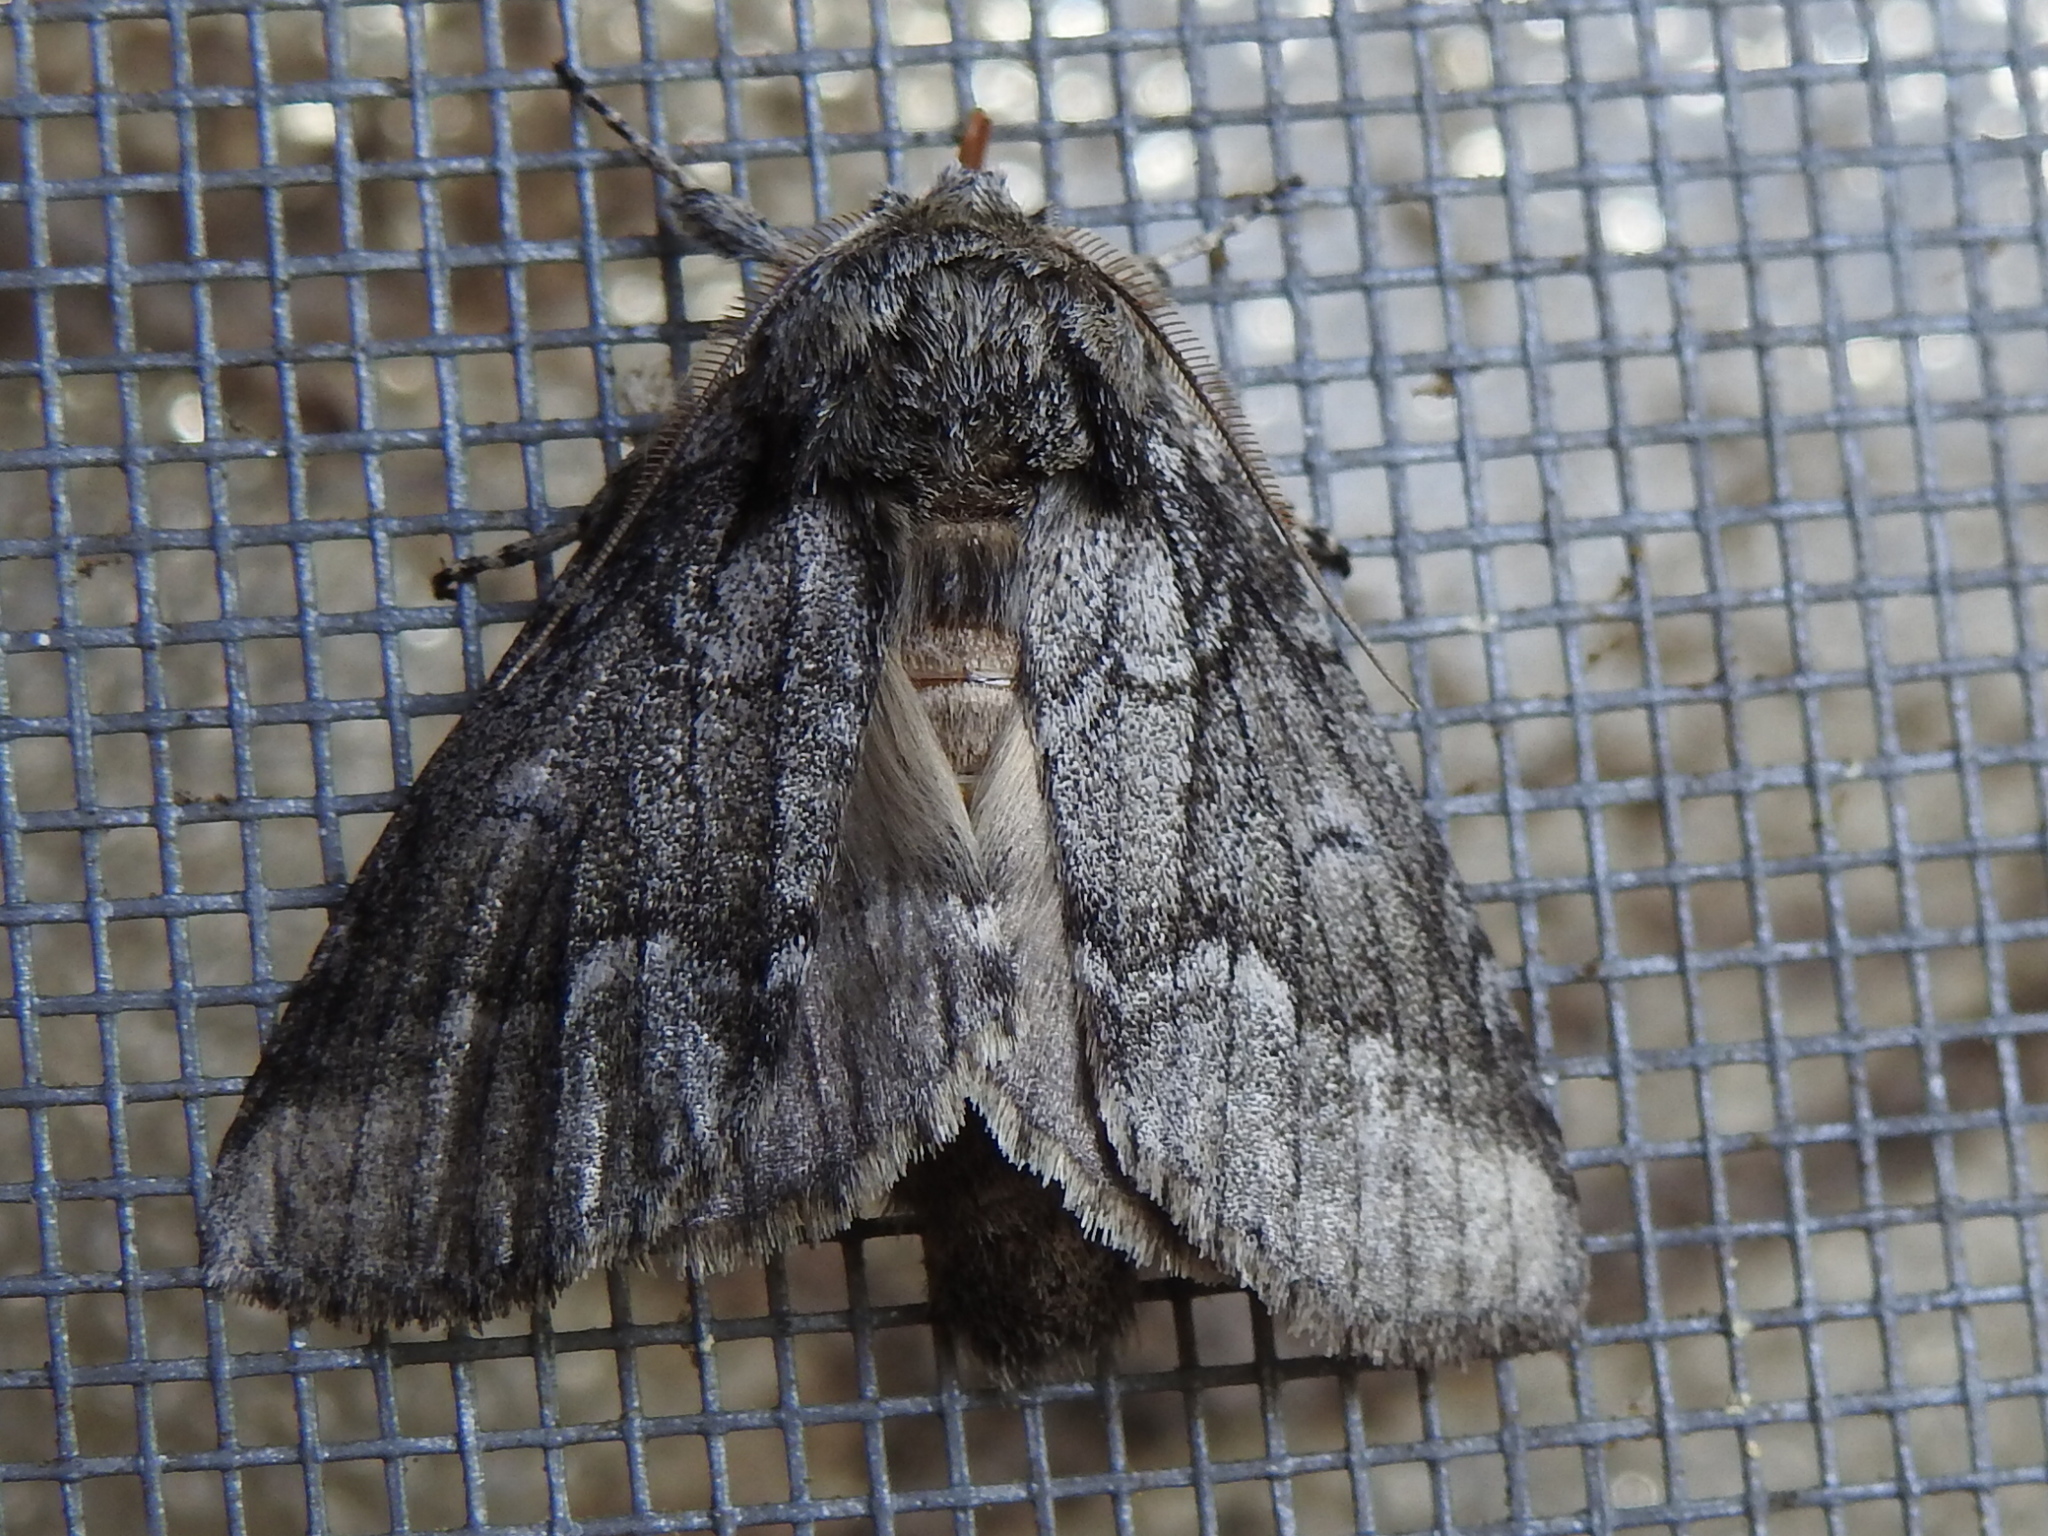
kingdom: Animalia
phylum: Arthropoda
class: Insecta
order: Lepidoptera
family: Notodontidae
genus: Lochmaeus
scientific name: Lochmaeus bilineata
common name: Double-lined prominent
